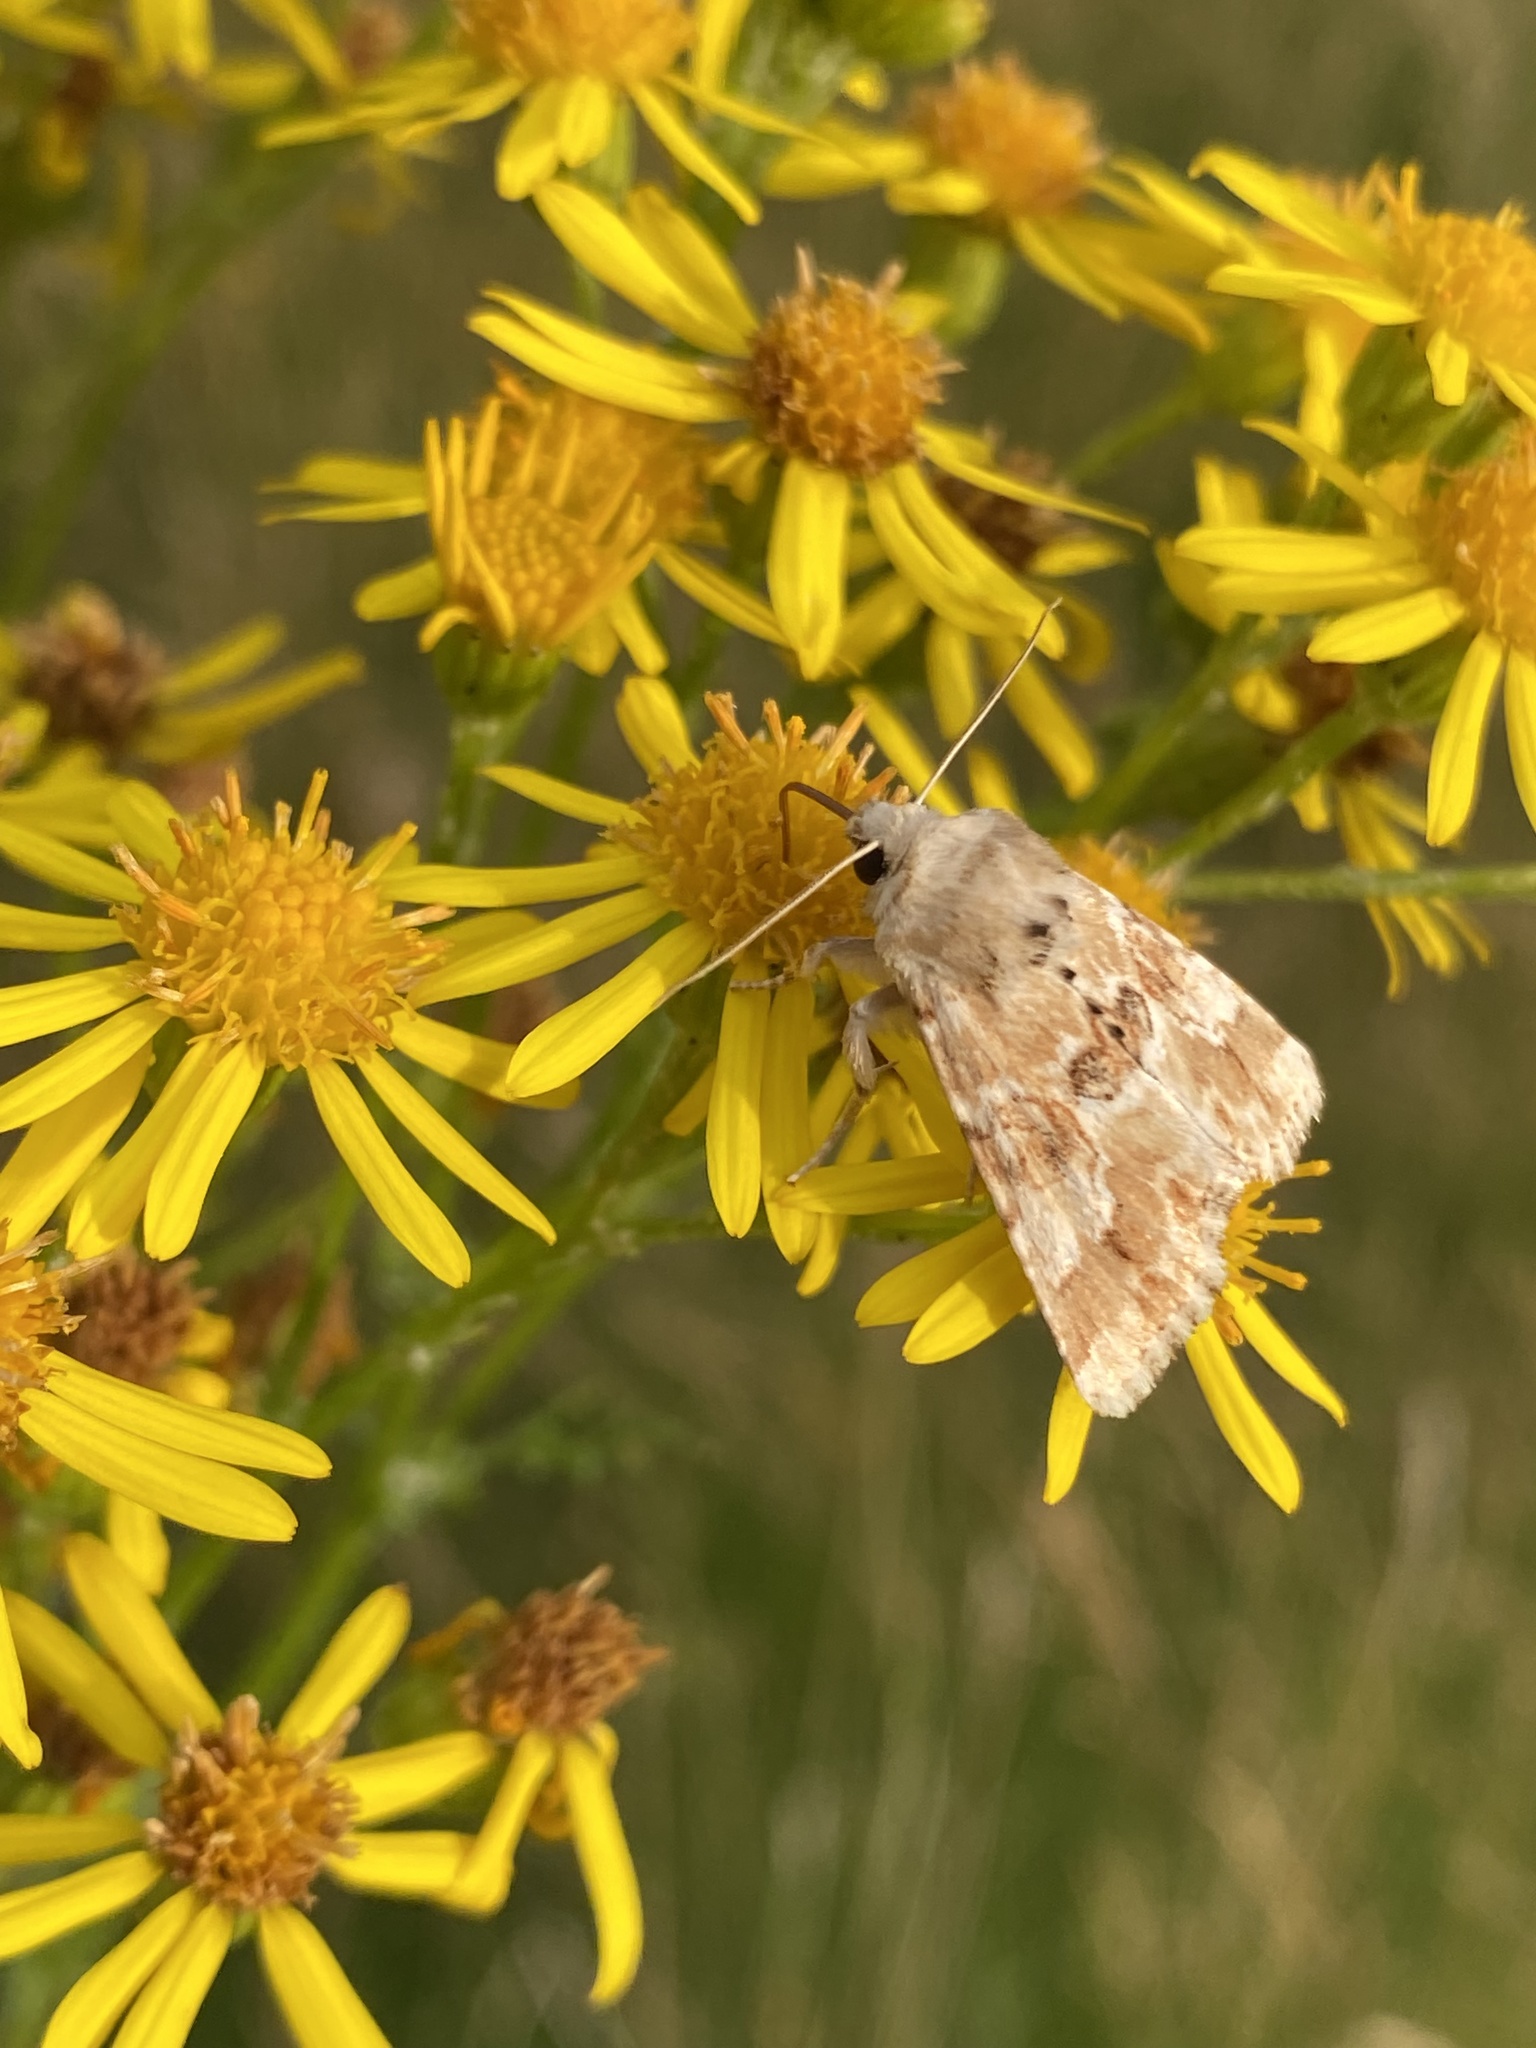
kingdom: Animalia
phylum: Arthropoda
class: Insecta
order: Lepidoptera
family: Noctuidae
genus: Eremobia
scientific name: Eremobia ochroleuca
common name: Dusky sallow
